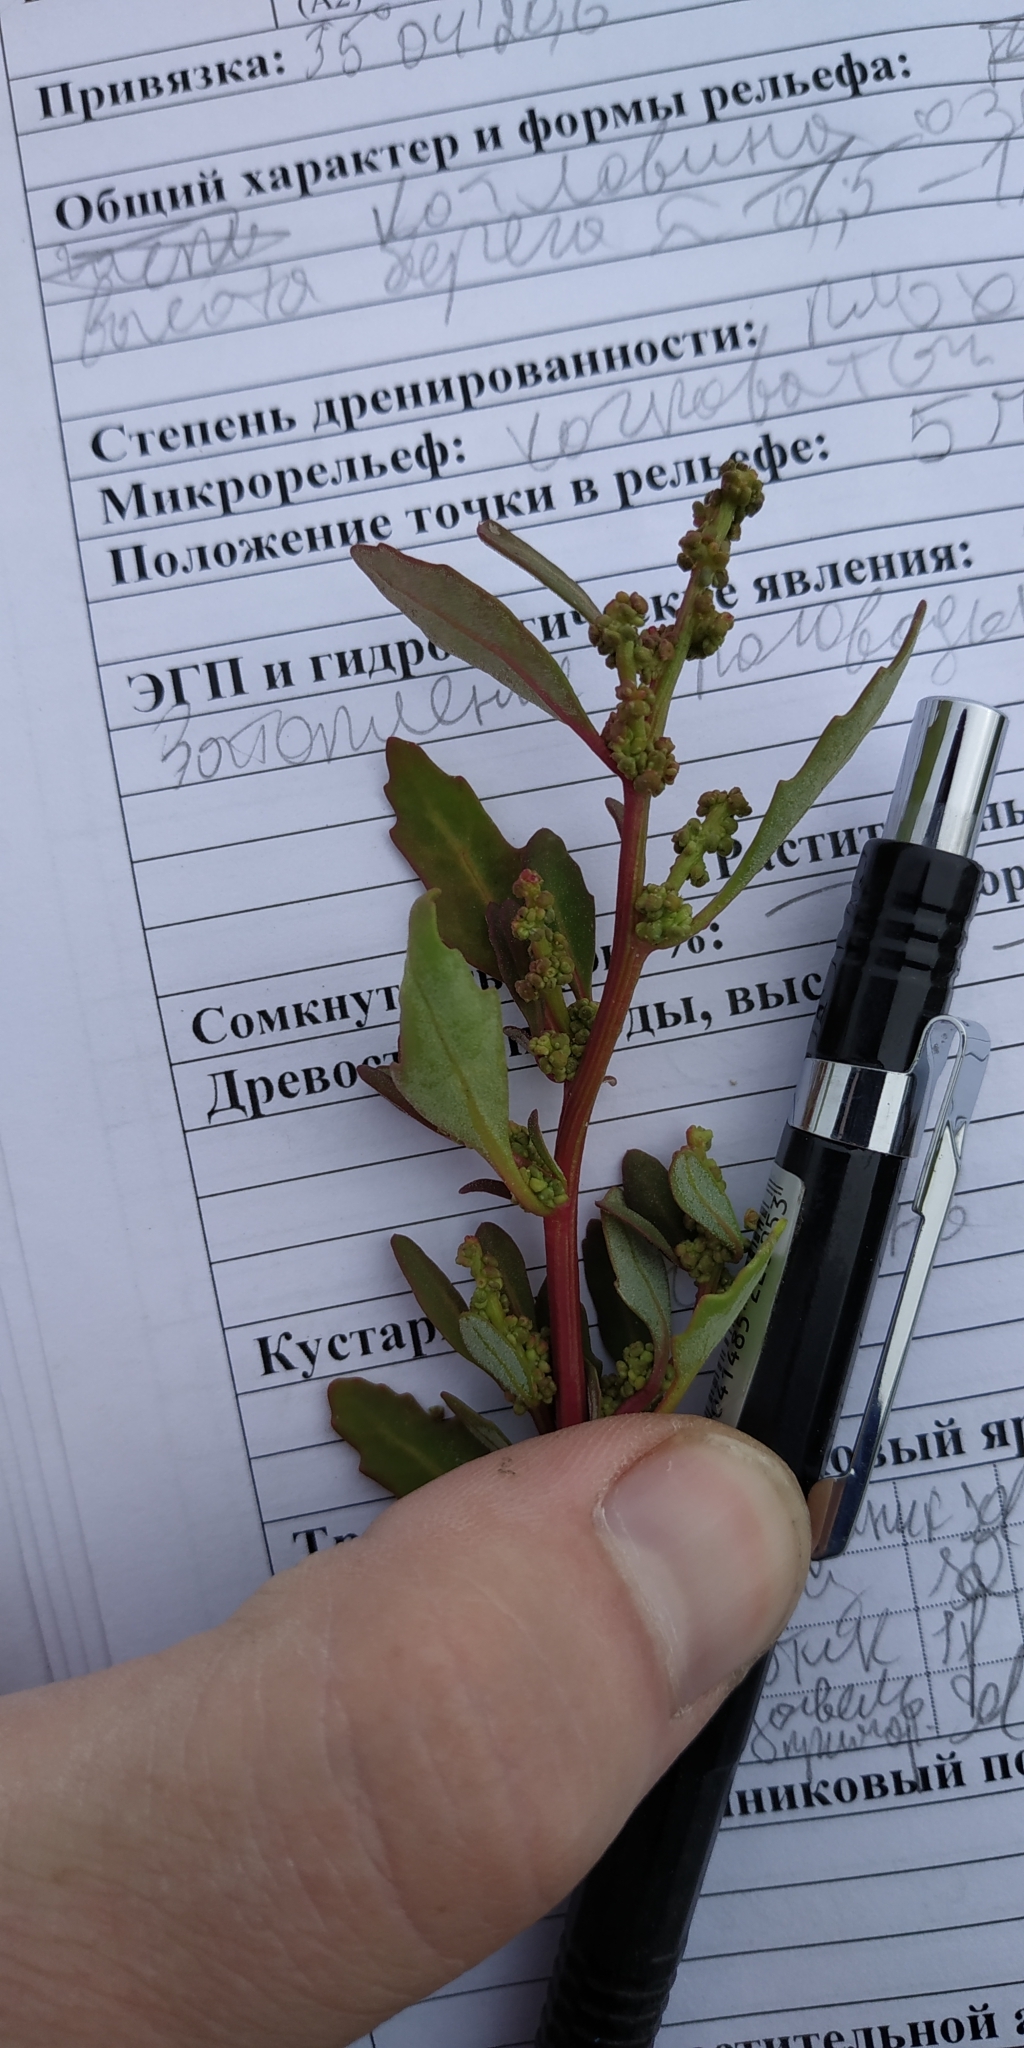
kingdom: Plantae
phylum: Tracheophyta
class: Magnoliopsida
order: Caryophyllales
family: Amaranthaceae
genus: Oxybasis
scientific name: Oxybasis glauca
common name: Glaucous goosefoot
